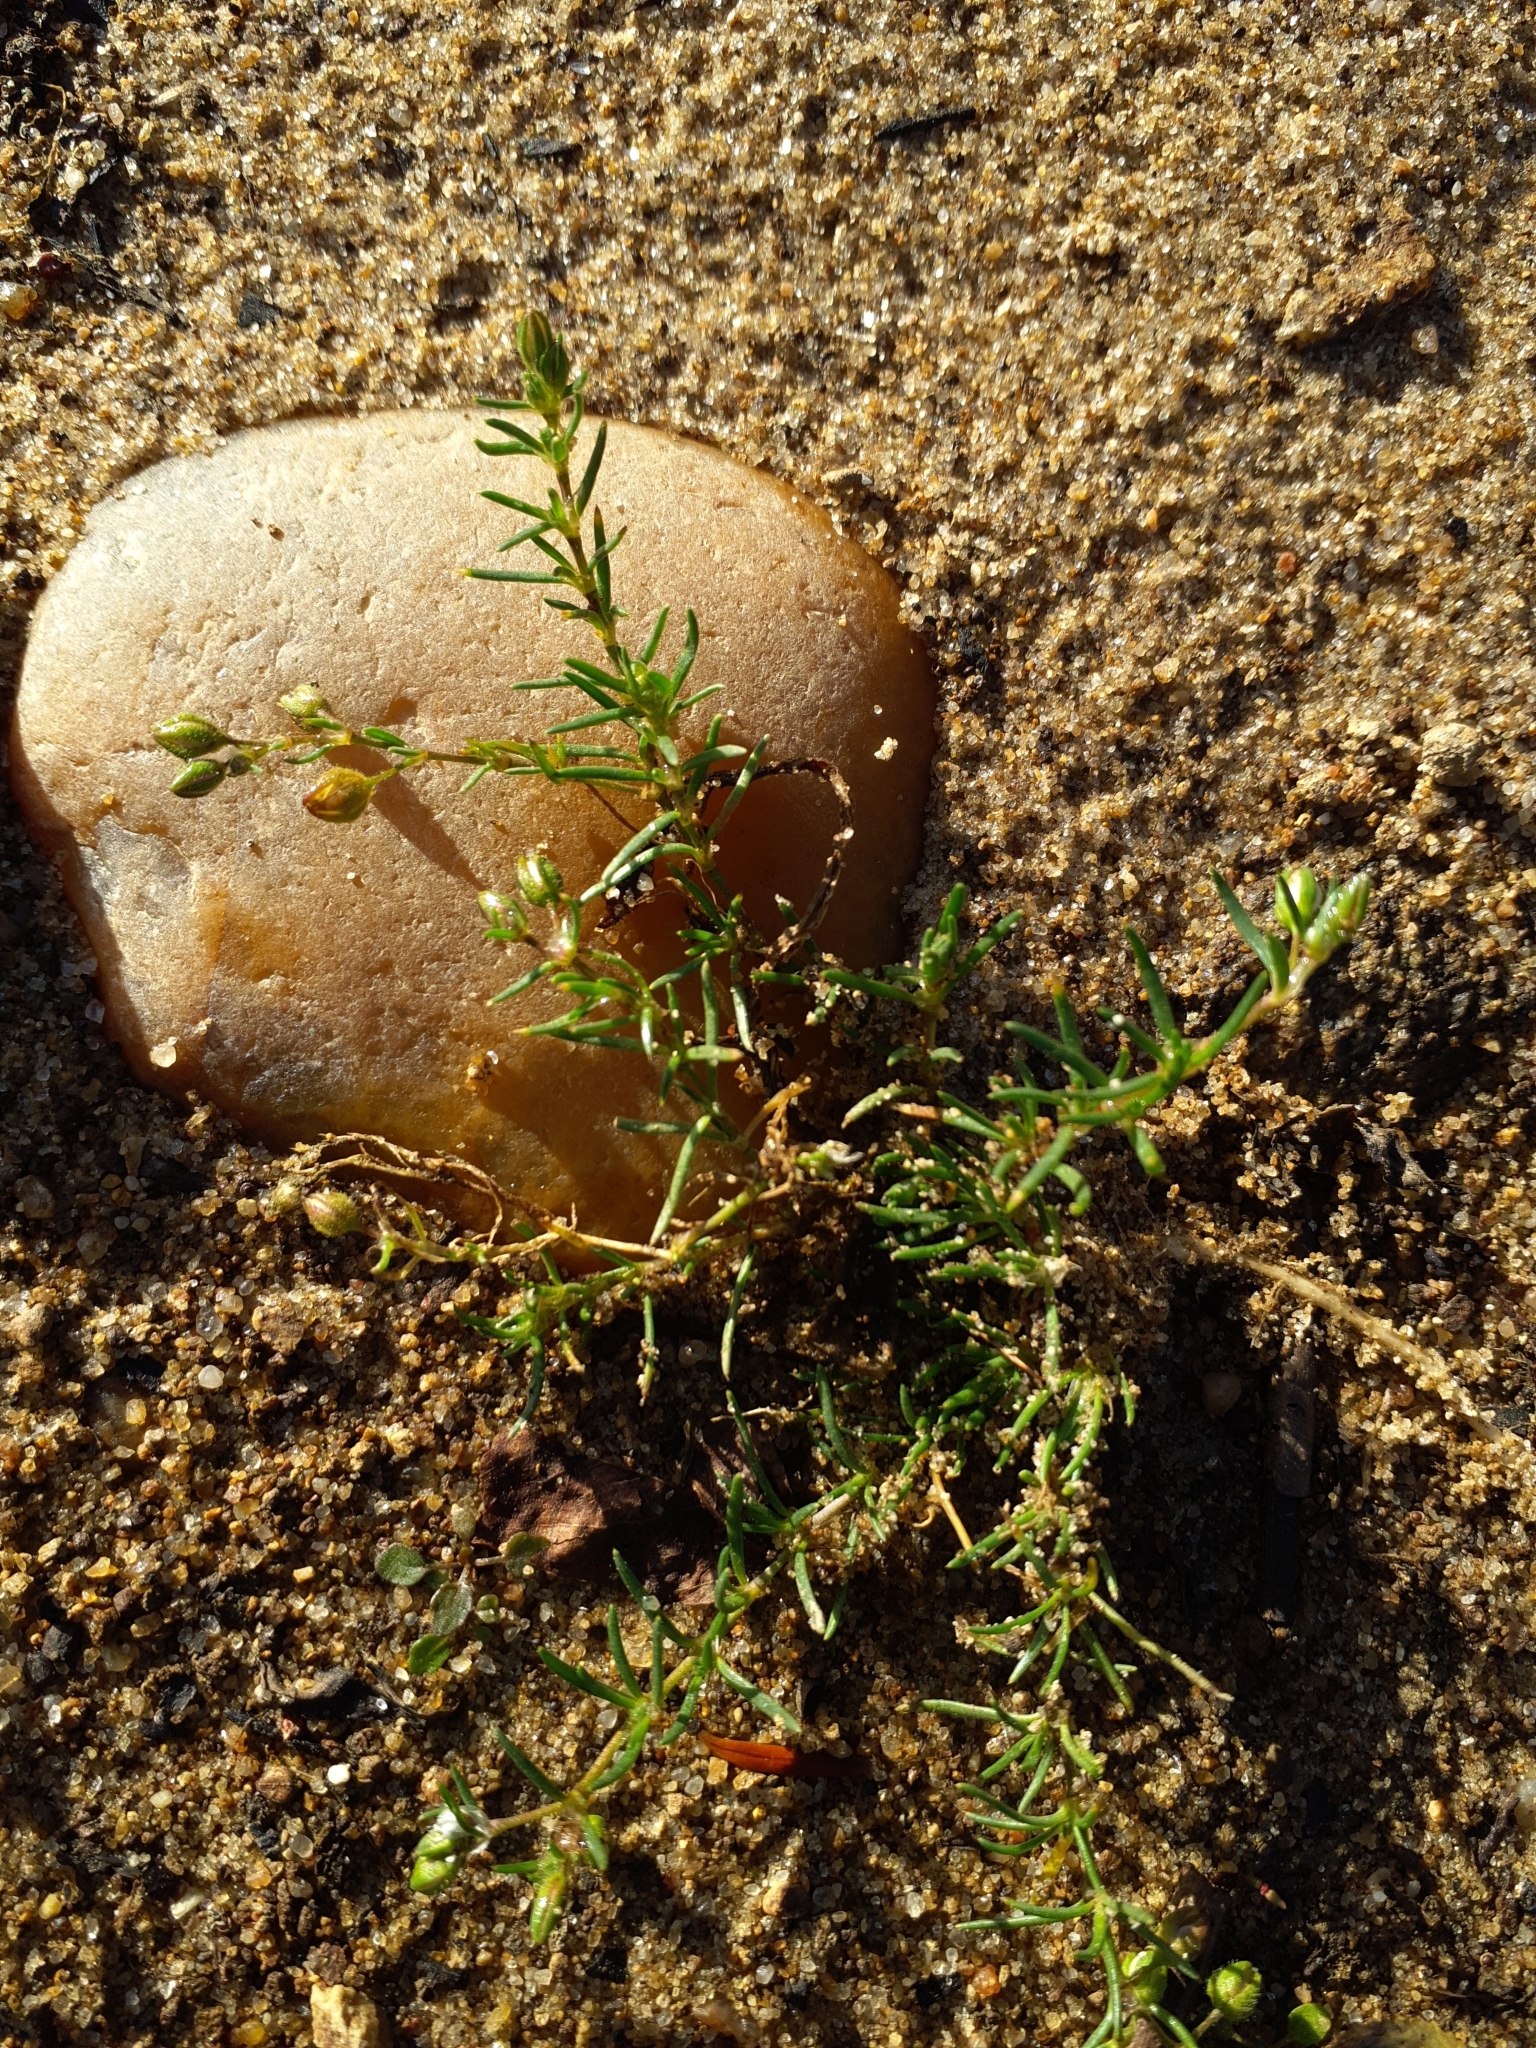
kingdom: Plantae
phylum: Tracheophyta
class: Magnoliopsida
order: Caryophyllales
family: Caryophyllaceae
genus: Spergularia
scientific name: Spergularia kurkae
